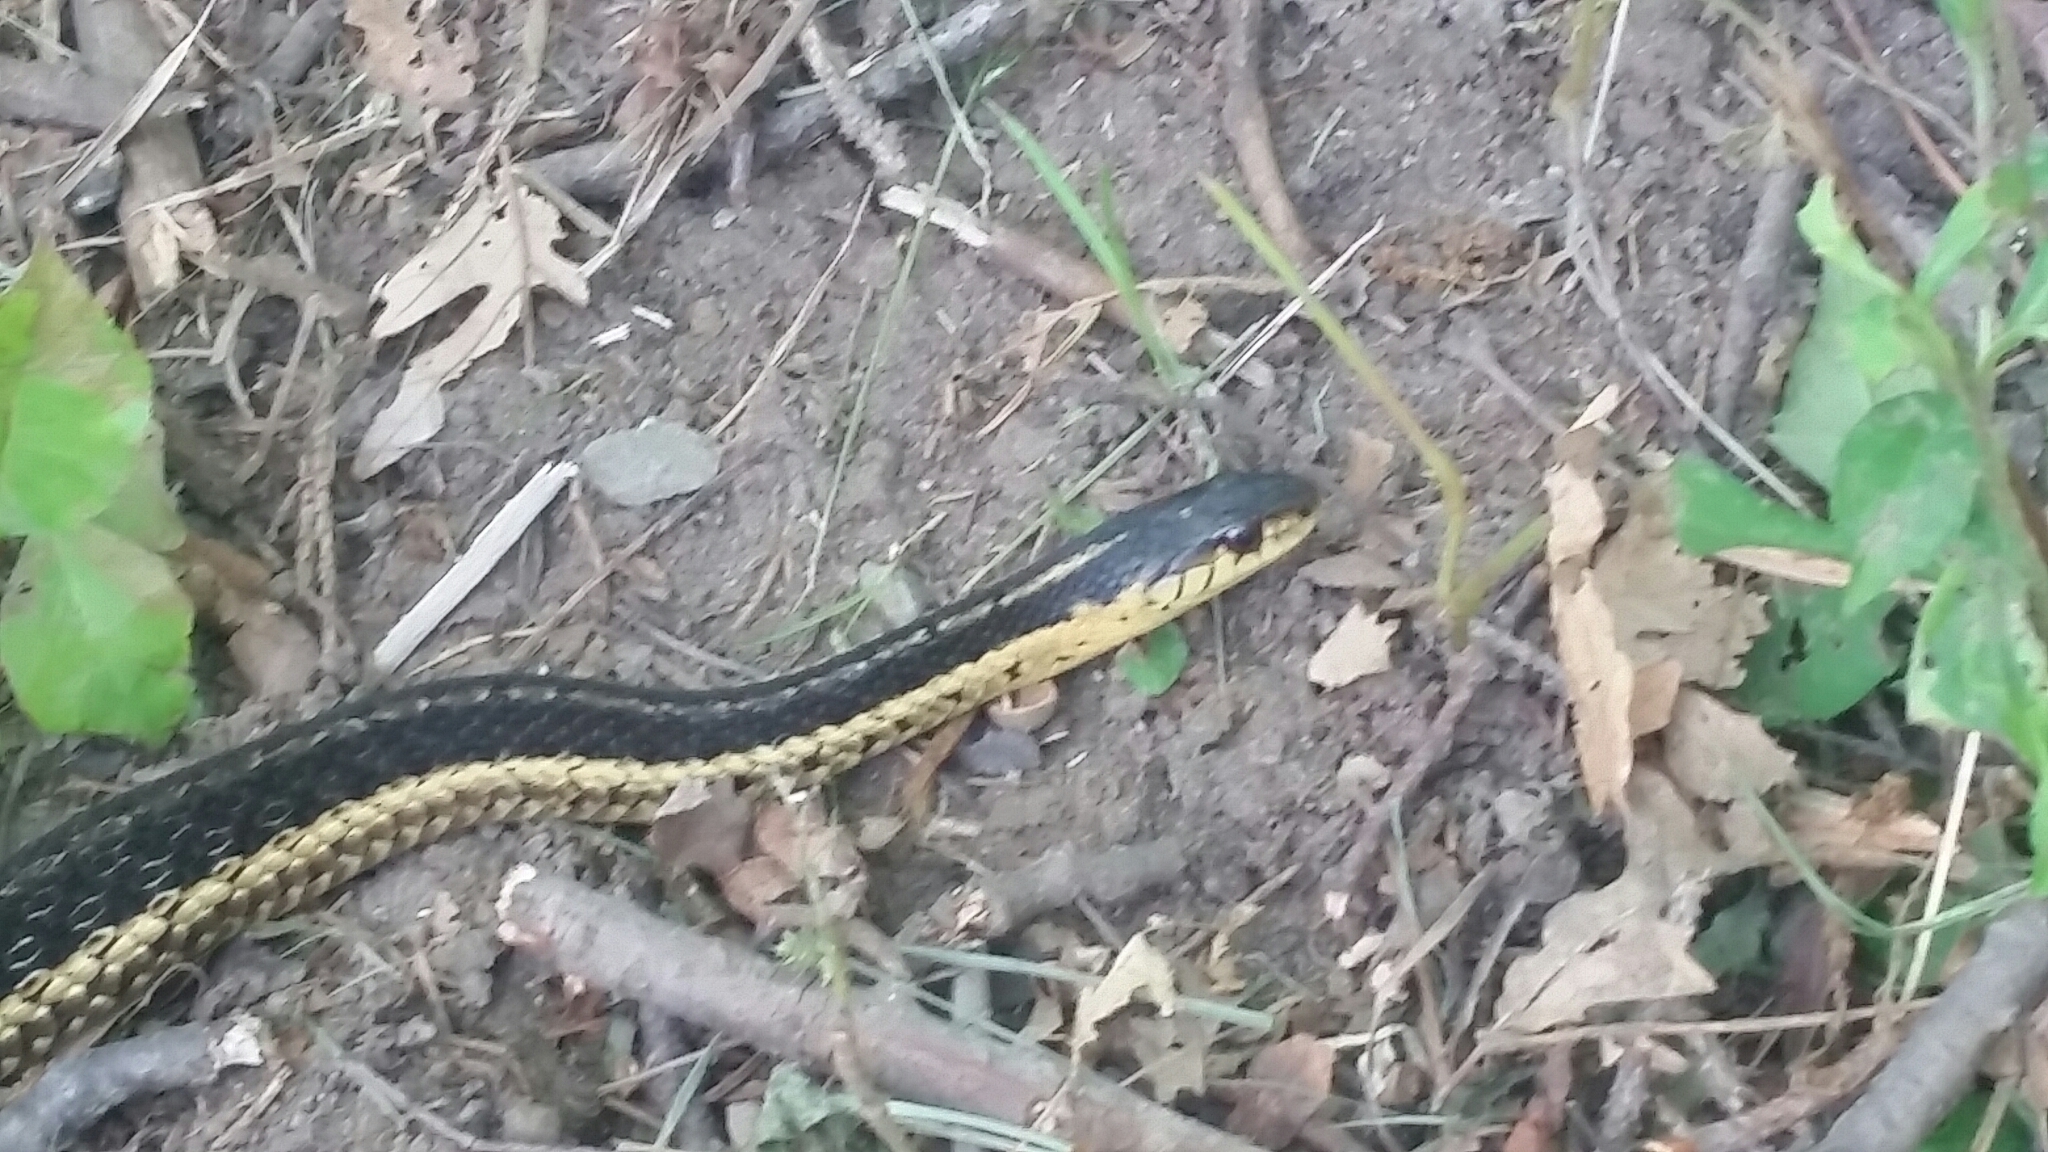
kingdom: Animalia
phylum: Chordata
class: Squamata
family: Colubridae
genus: Thamnophis
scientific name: Thamnophis sirtalis
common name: Common garter snake
